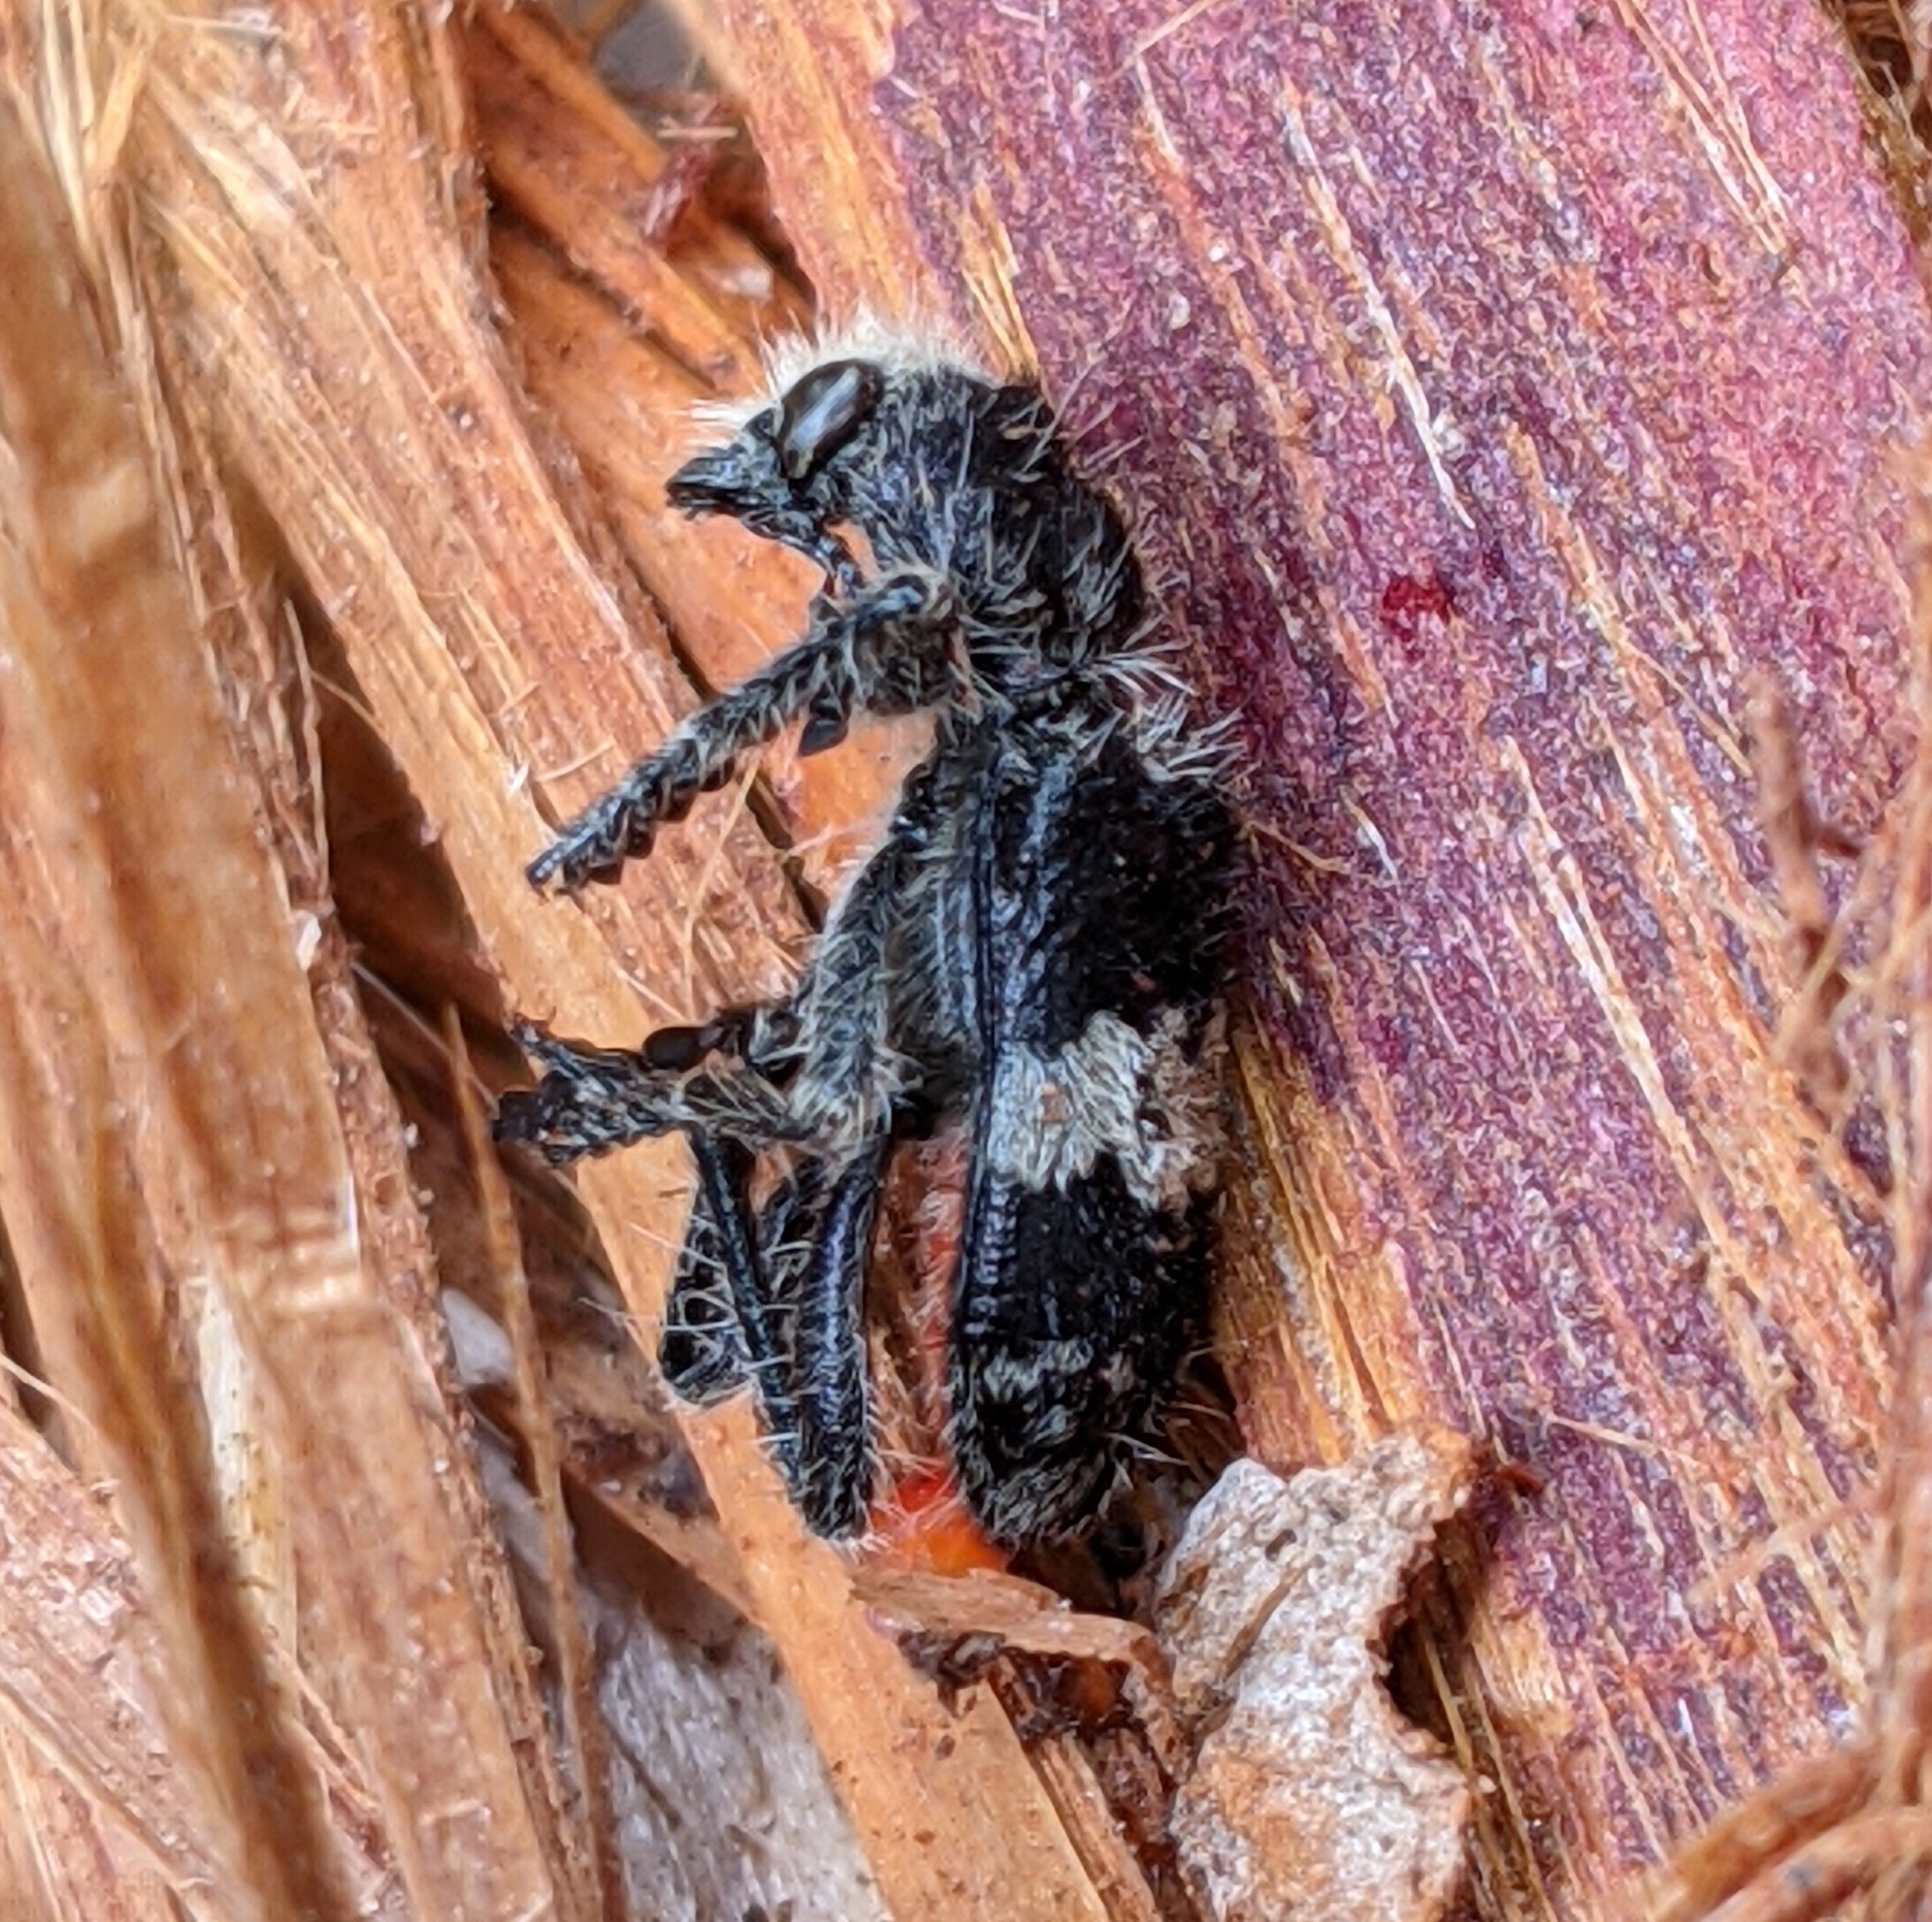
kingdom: Animalia
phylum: Arthropoda
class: Insecta
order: Coleoptera
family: Cleridae
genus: Enoclerus
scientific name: Enoclerus sphegeus
